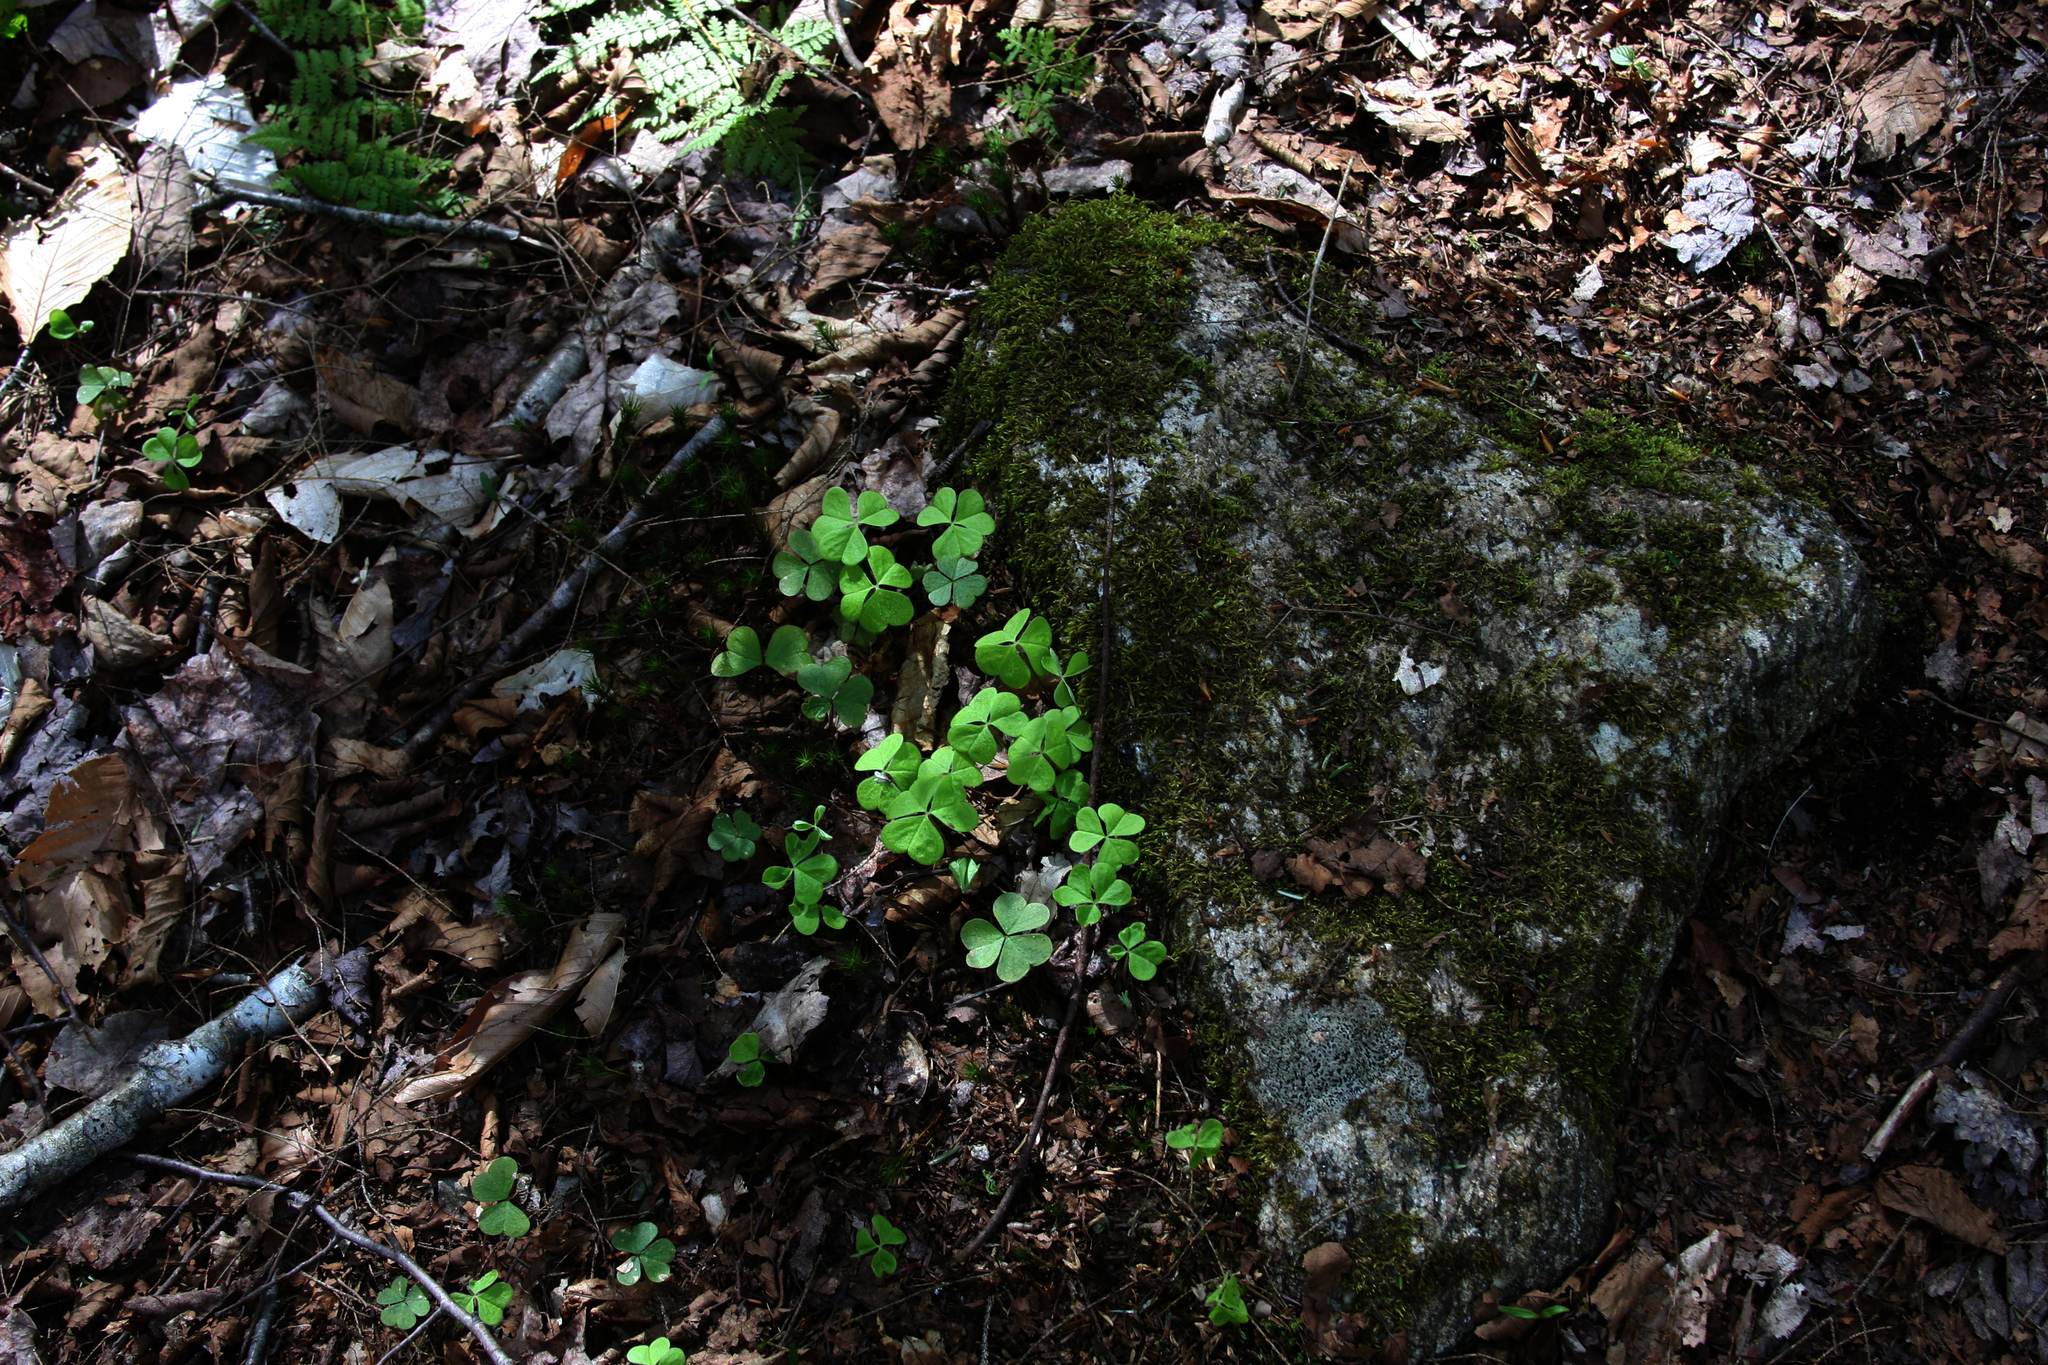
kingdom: Plantae
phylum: Tracheophyta
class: Magnoliopsida
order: Oxalidales
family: Oxalidaceae
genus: Oxalis
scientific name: Oxalis montana
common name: American wood-sorrel
